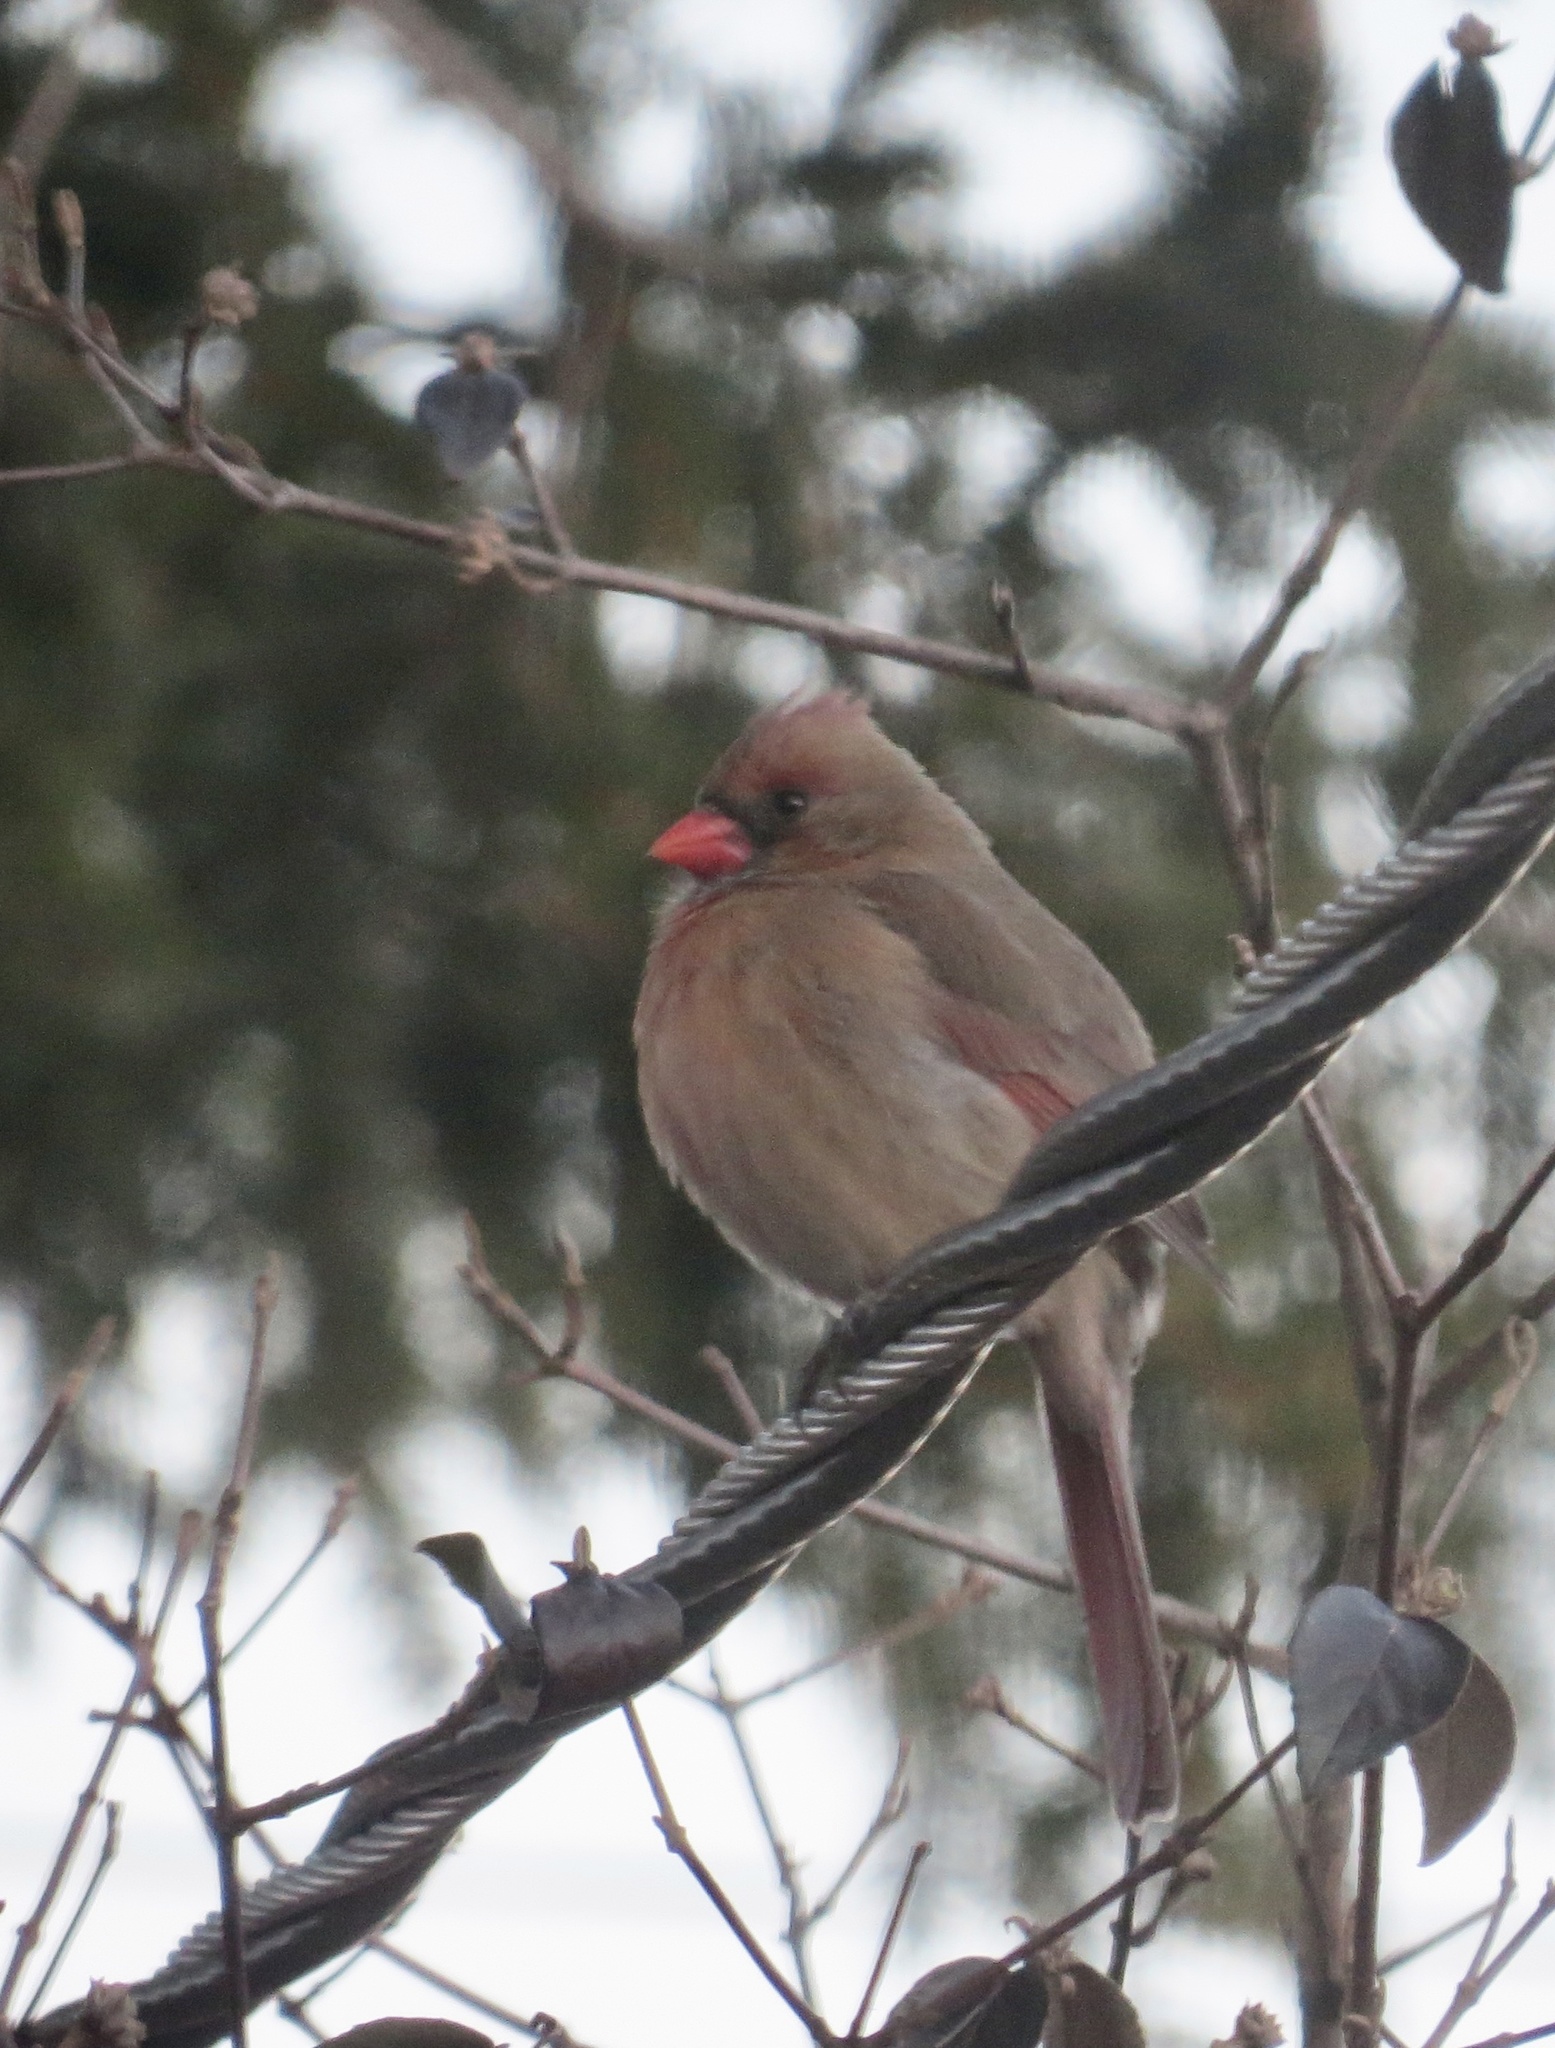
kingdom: Animalia
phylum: Chordata
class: Aves
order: Passeriformes
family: Cardinalidae
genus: Cardinalis
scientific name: Cardinalis cardinalis
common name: Northern cardinal
